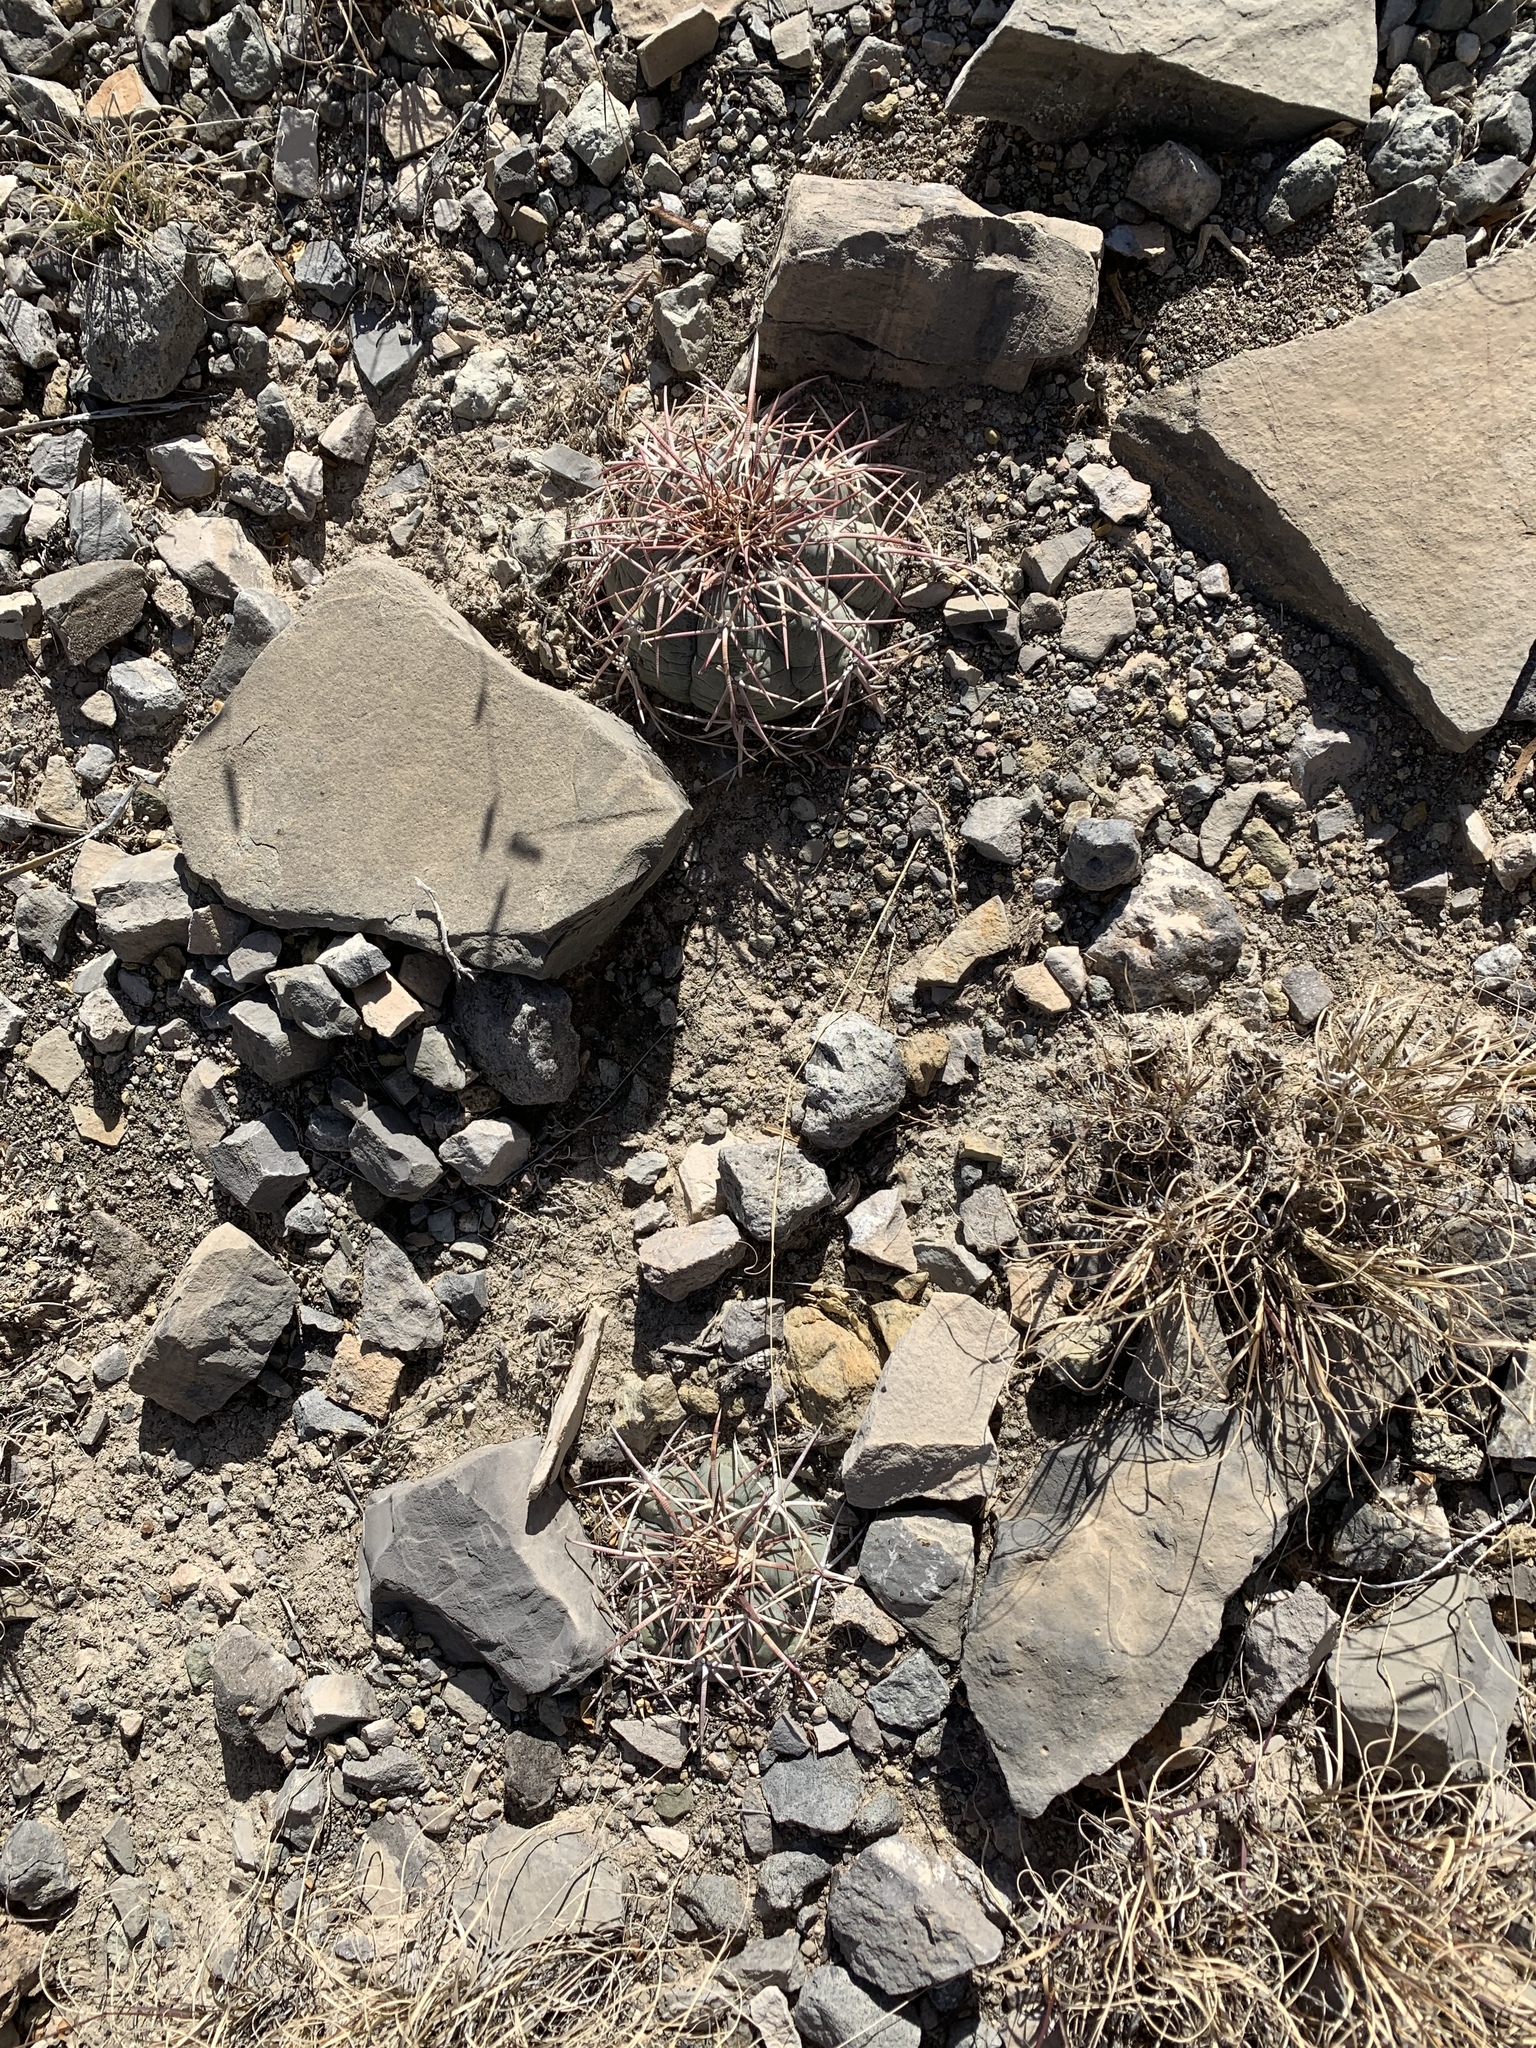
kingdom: Plantae
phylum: Tracheophyta
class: Magnoliopsida
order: Caryophyllales
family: Cactaceae
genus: Echinocactus
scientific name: Echinocactus horizonthalonius
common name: Devilshead
